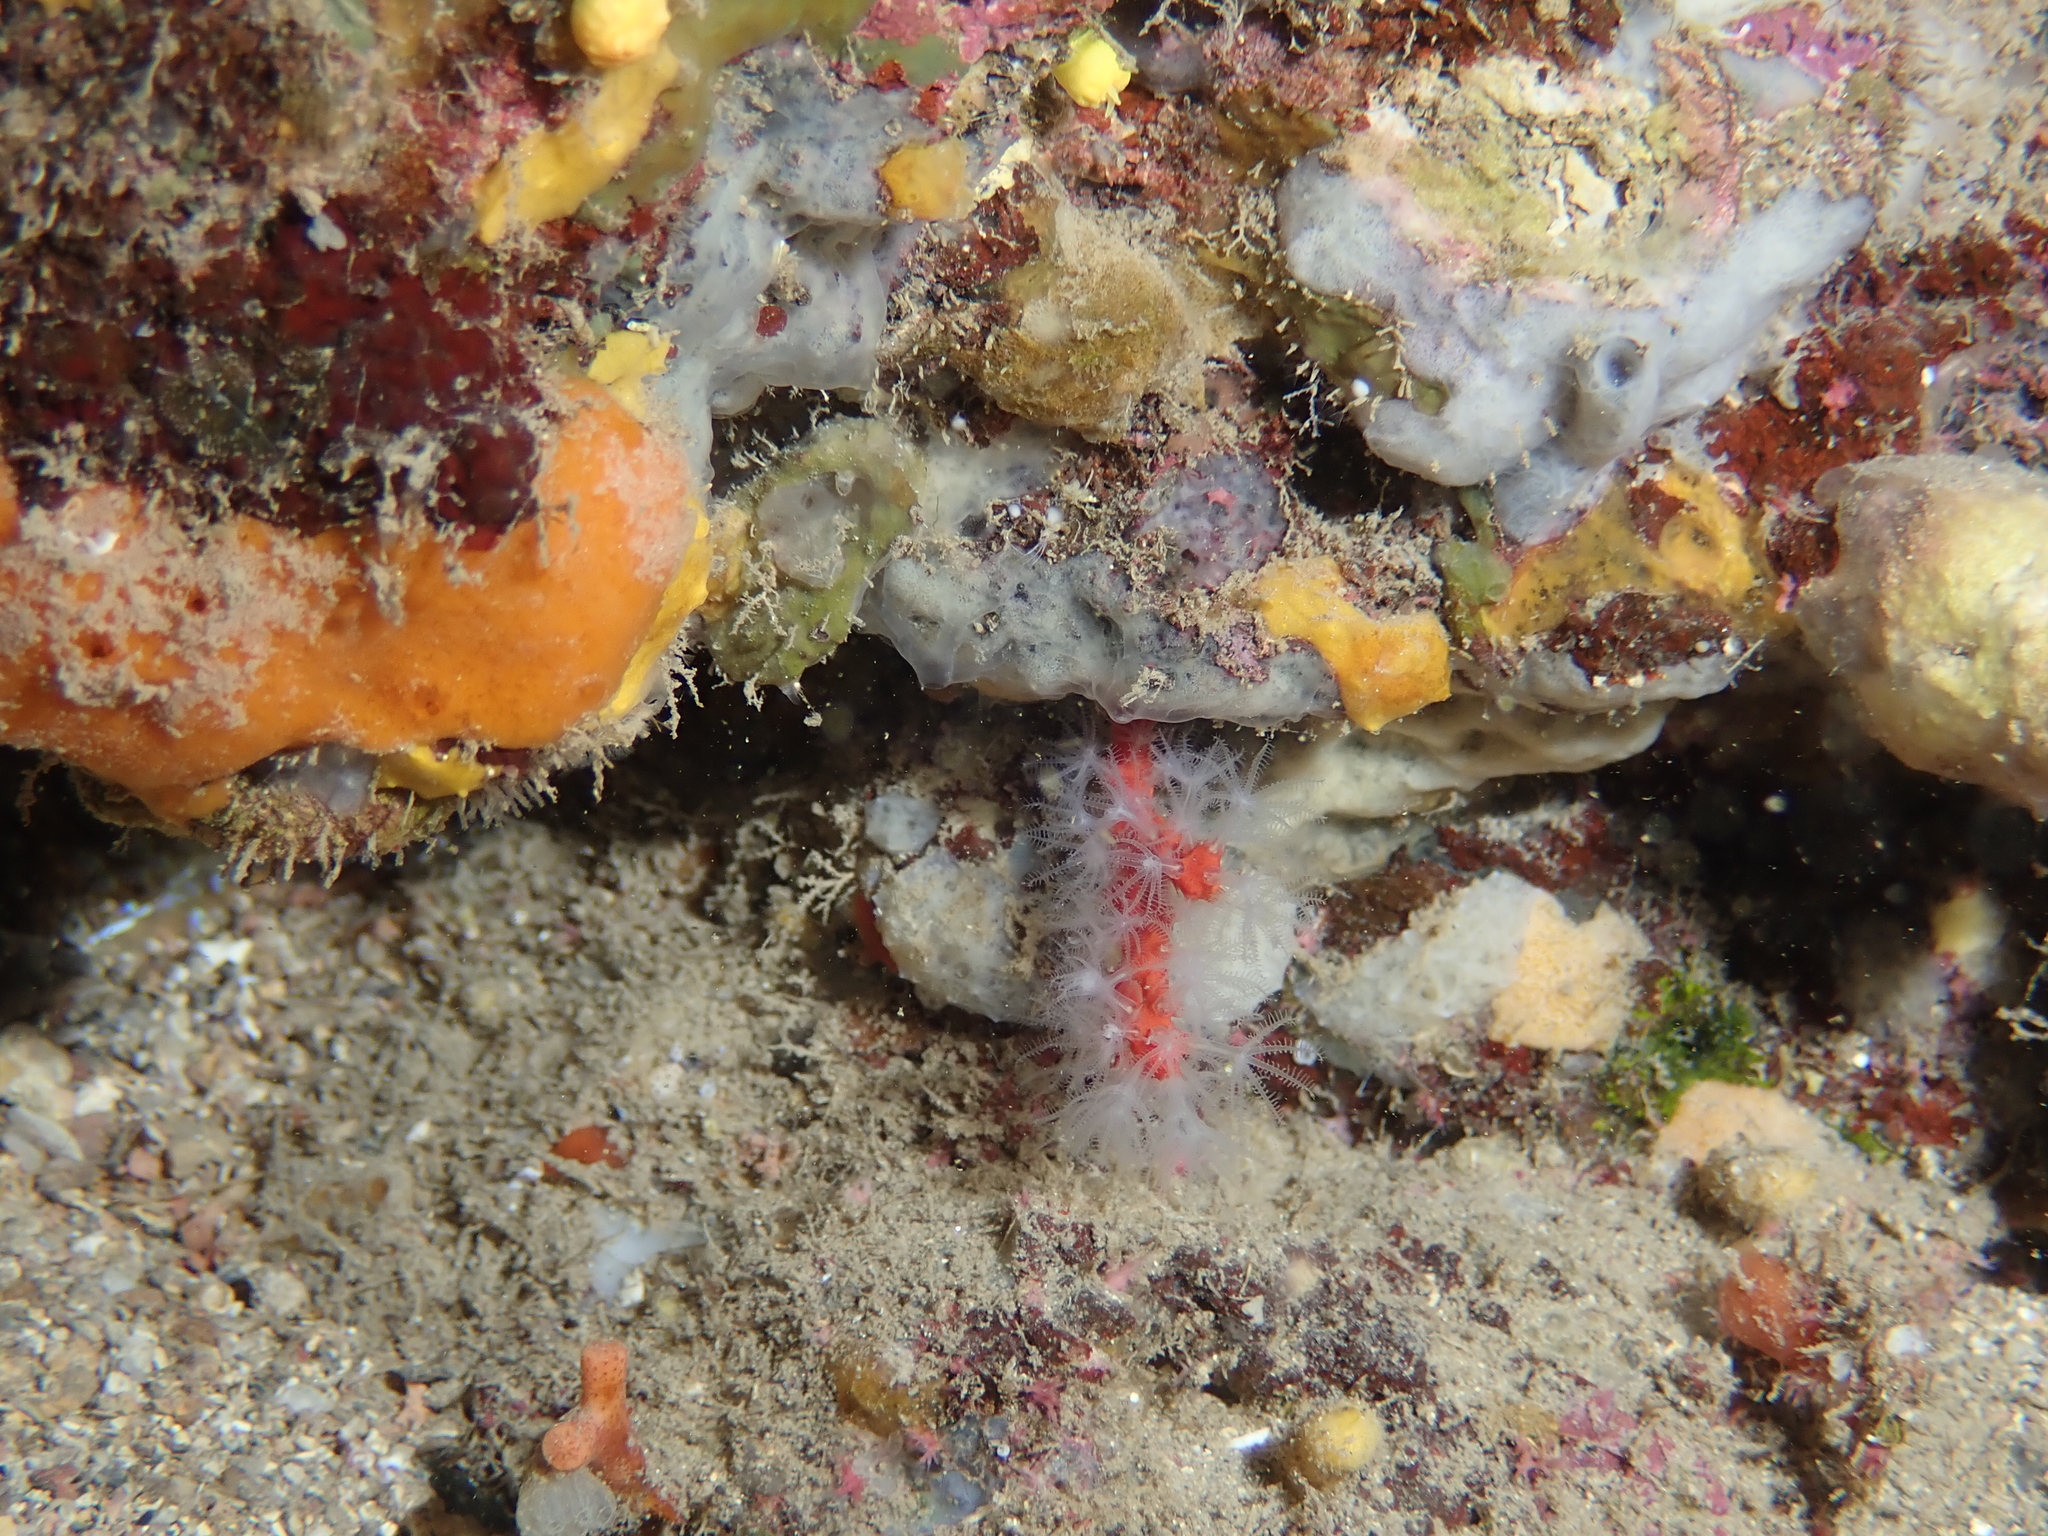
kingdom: Animalia
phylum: Cnidaria
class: Anthozoa
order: Scleralcyonacea
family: Coralliidae
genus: Corallium
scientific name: Corallium rubrum
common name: Precious coral
